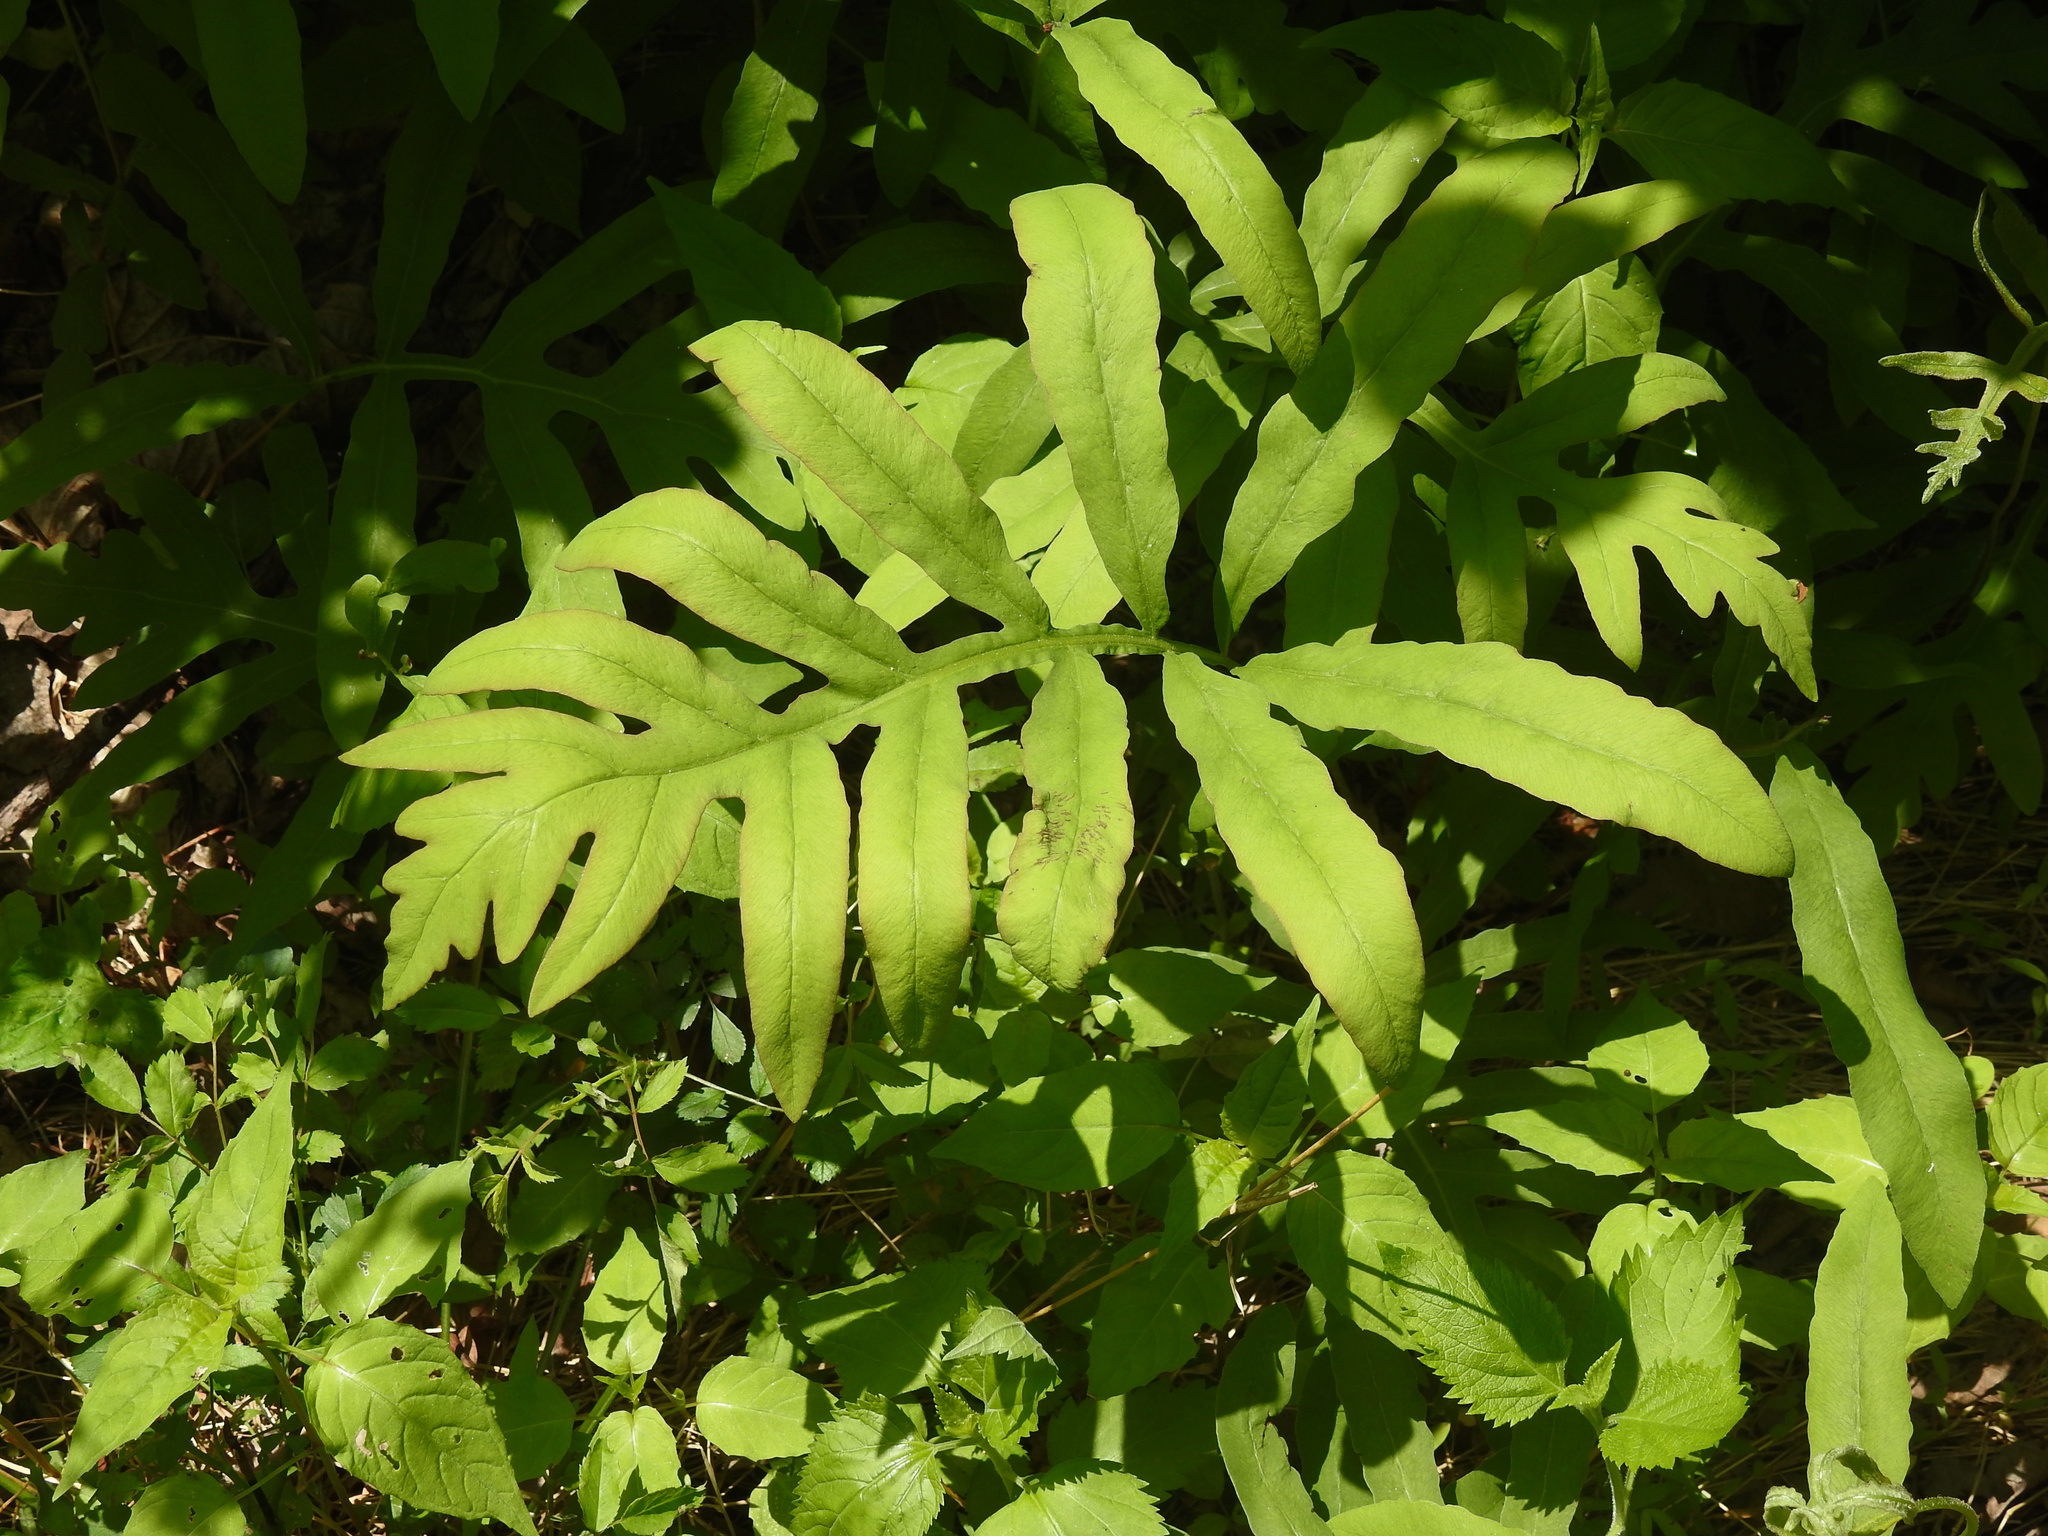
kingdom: Plantae
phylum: Tracheophyta
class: Polypodiopsida
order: Polypodiales
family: Onocleaceae
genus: Onoclea
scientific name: Onoclea sensibilis
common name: Sensitive fern
